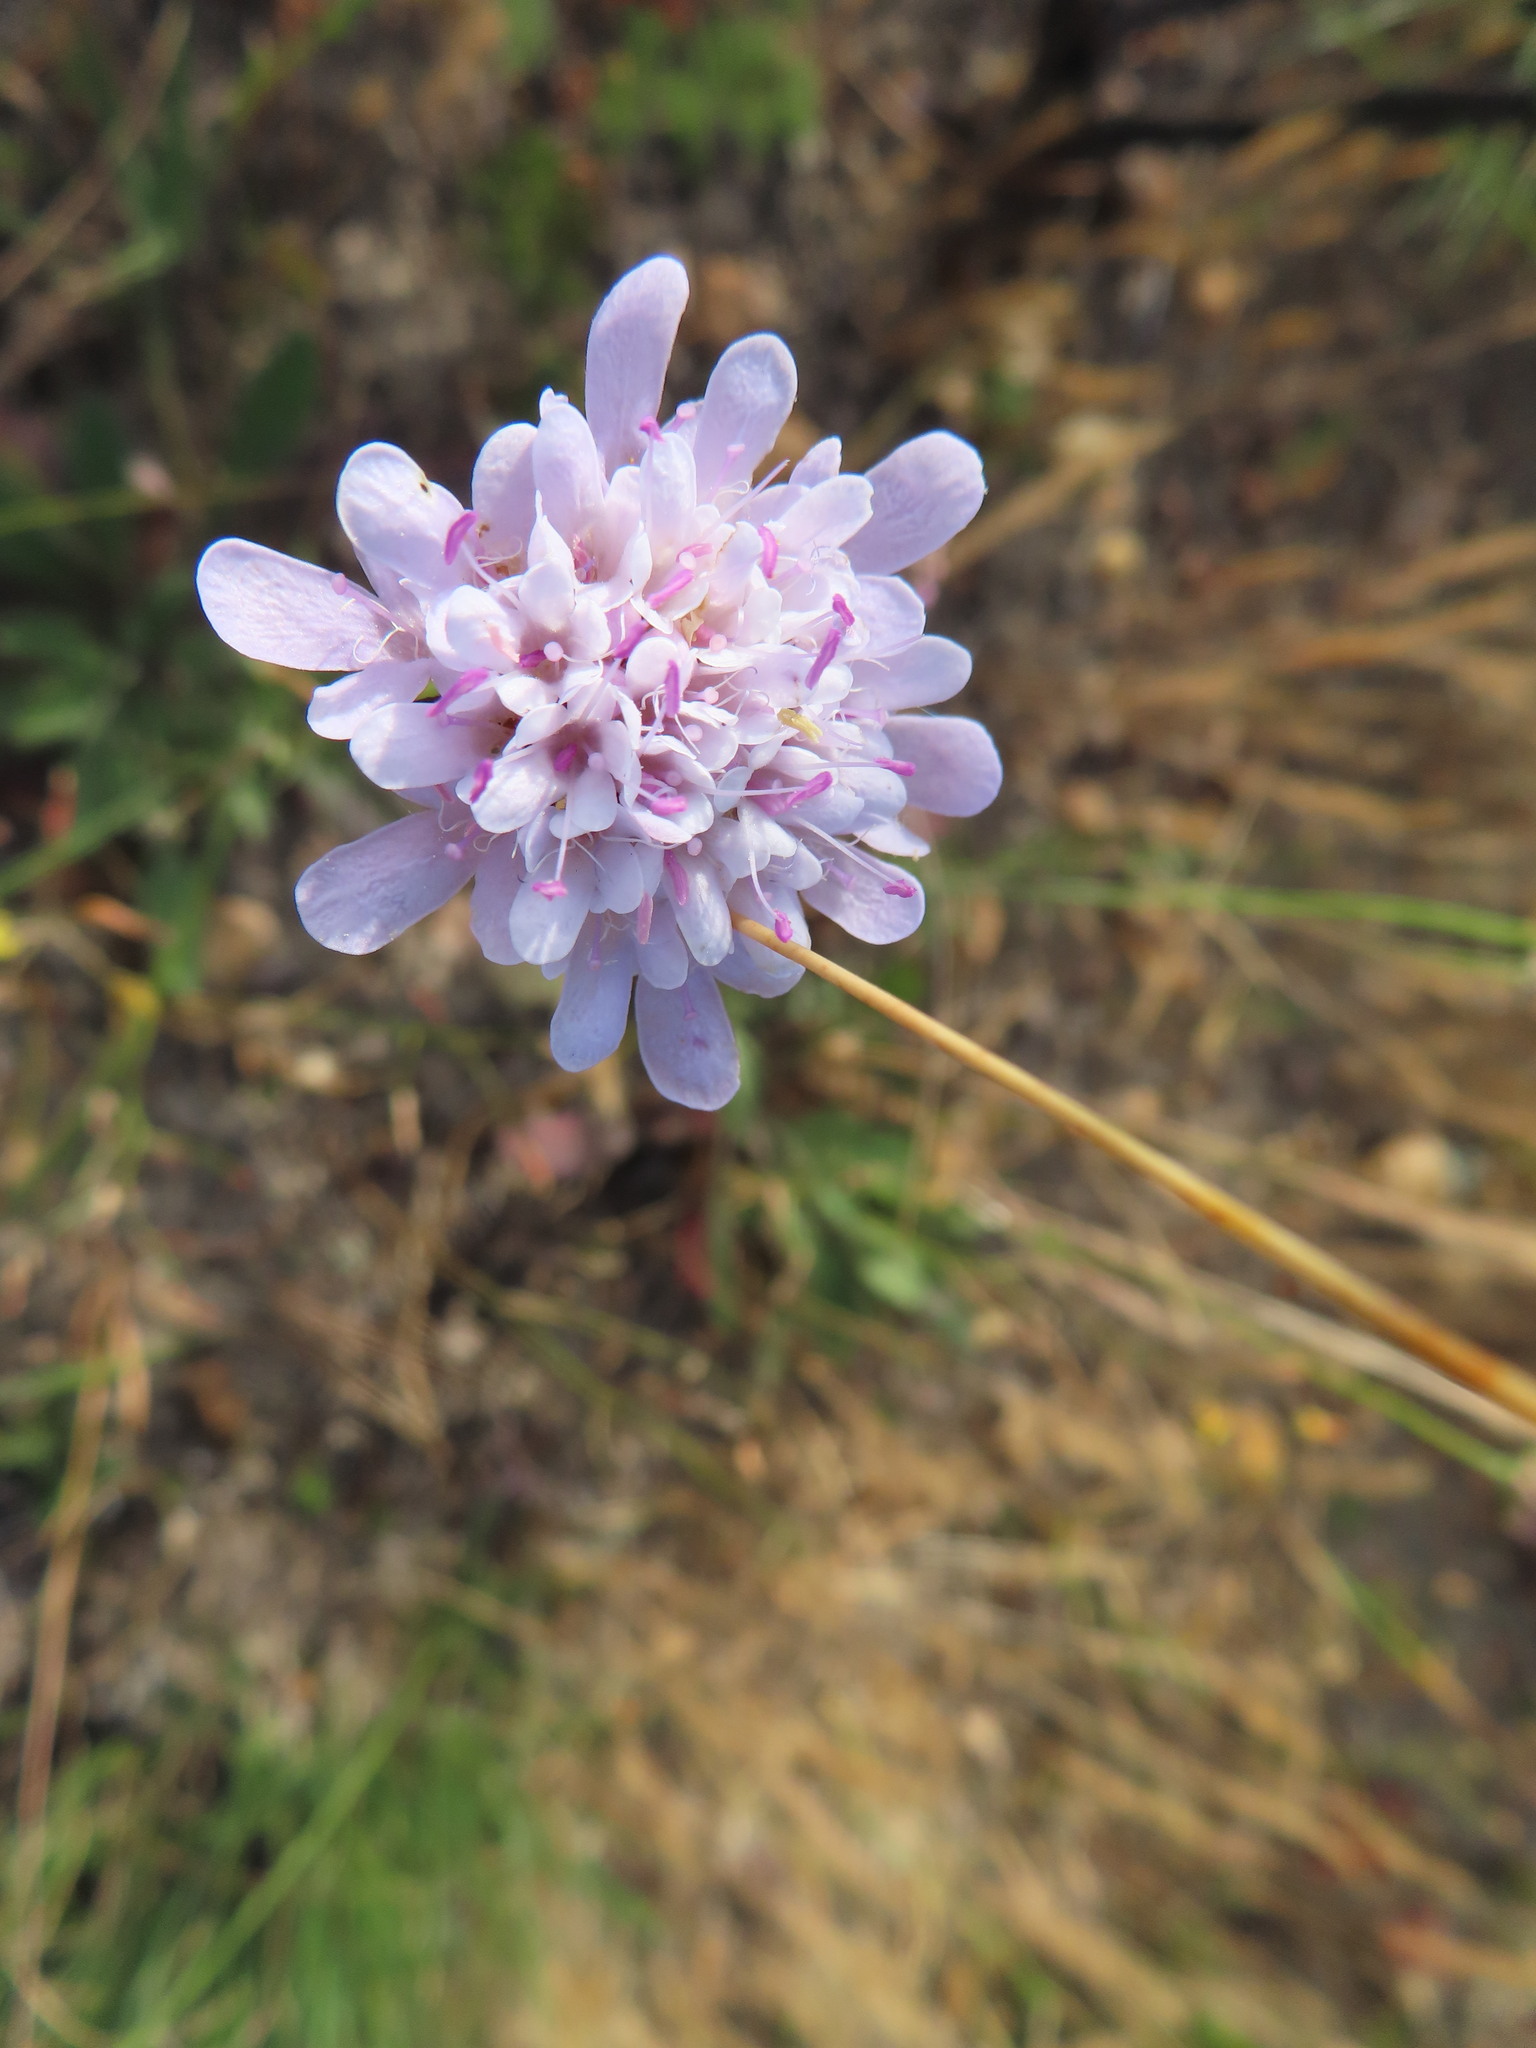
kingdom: Plantae
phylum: Tracheophyta
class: Magnoliopsida
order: Dipsacales
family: Caprifoliaceae
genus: Scabiosa
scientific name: Scabiosa columbaria
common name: Small scabious
